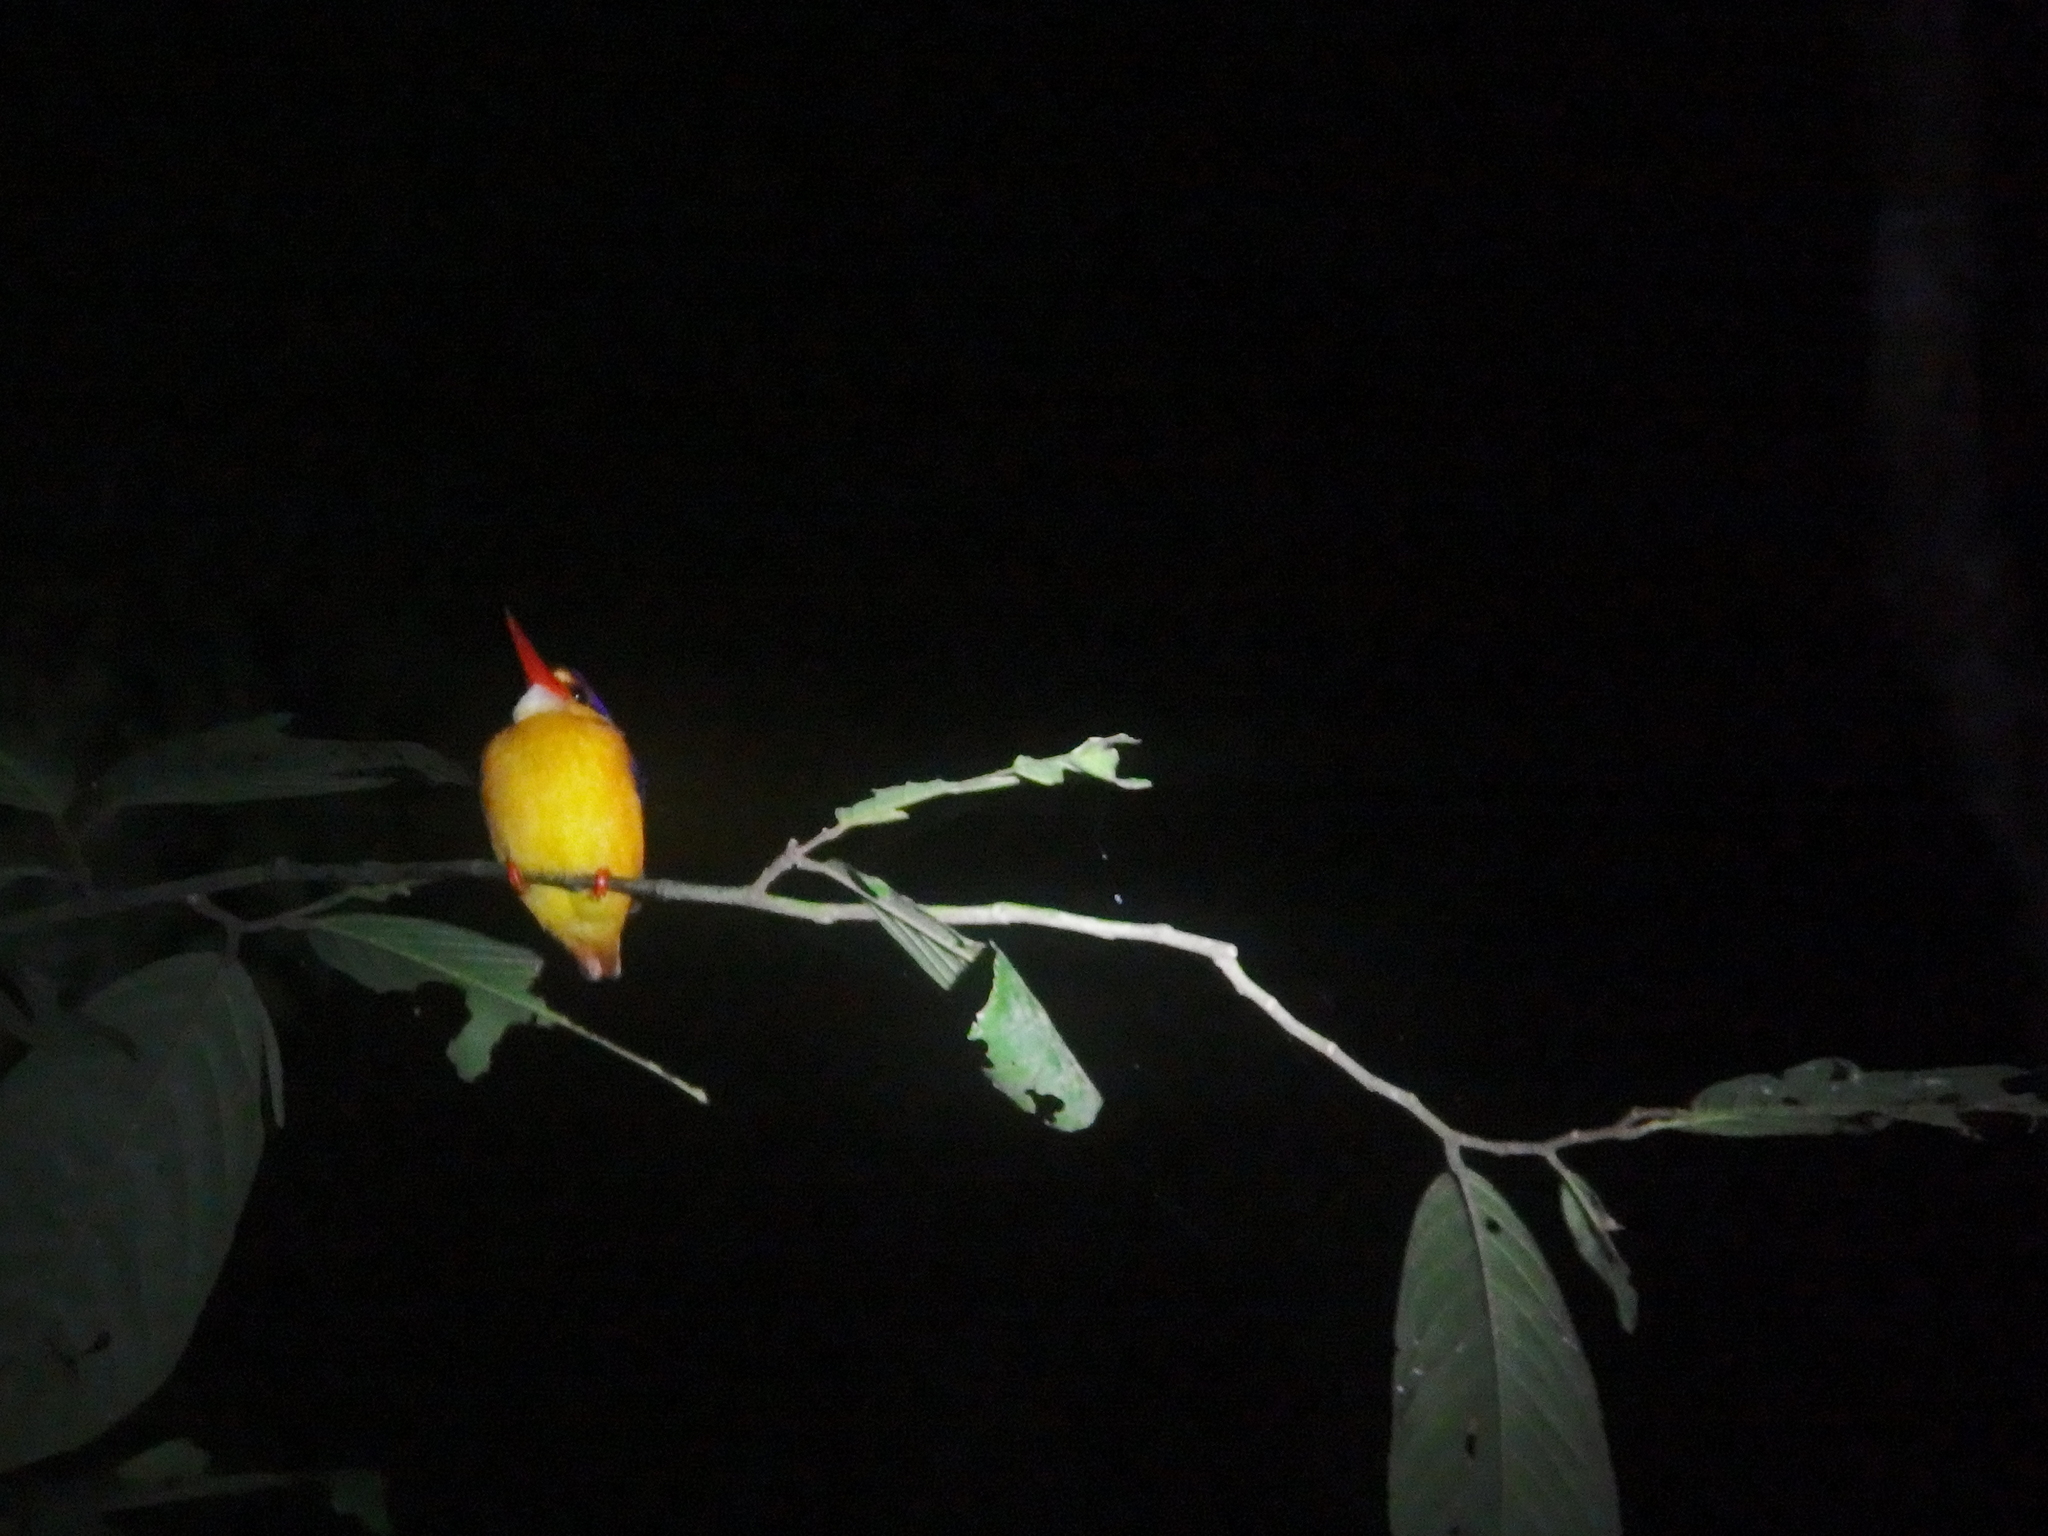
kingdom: Animalia
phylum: Chordata
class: Aves
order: Coraciiformes
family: Alcedinidae
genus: Ceyx
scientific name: Ceyx erithaca
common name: Oriental dwarf kingfisher
